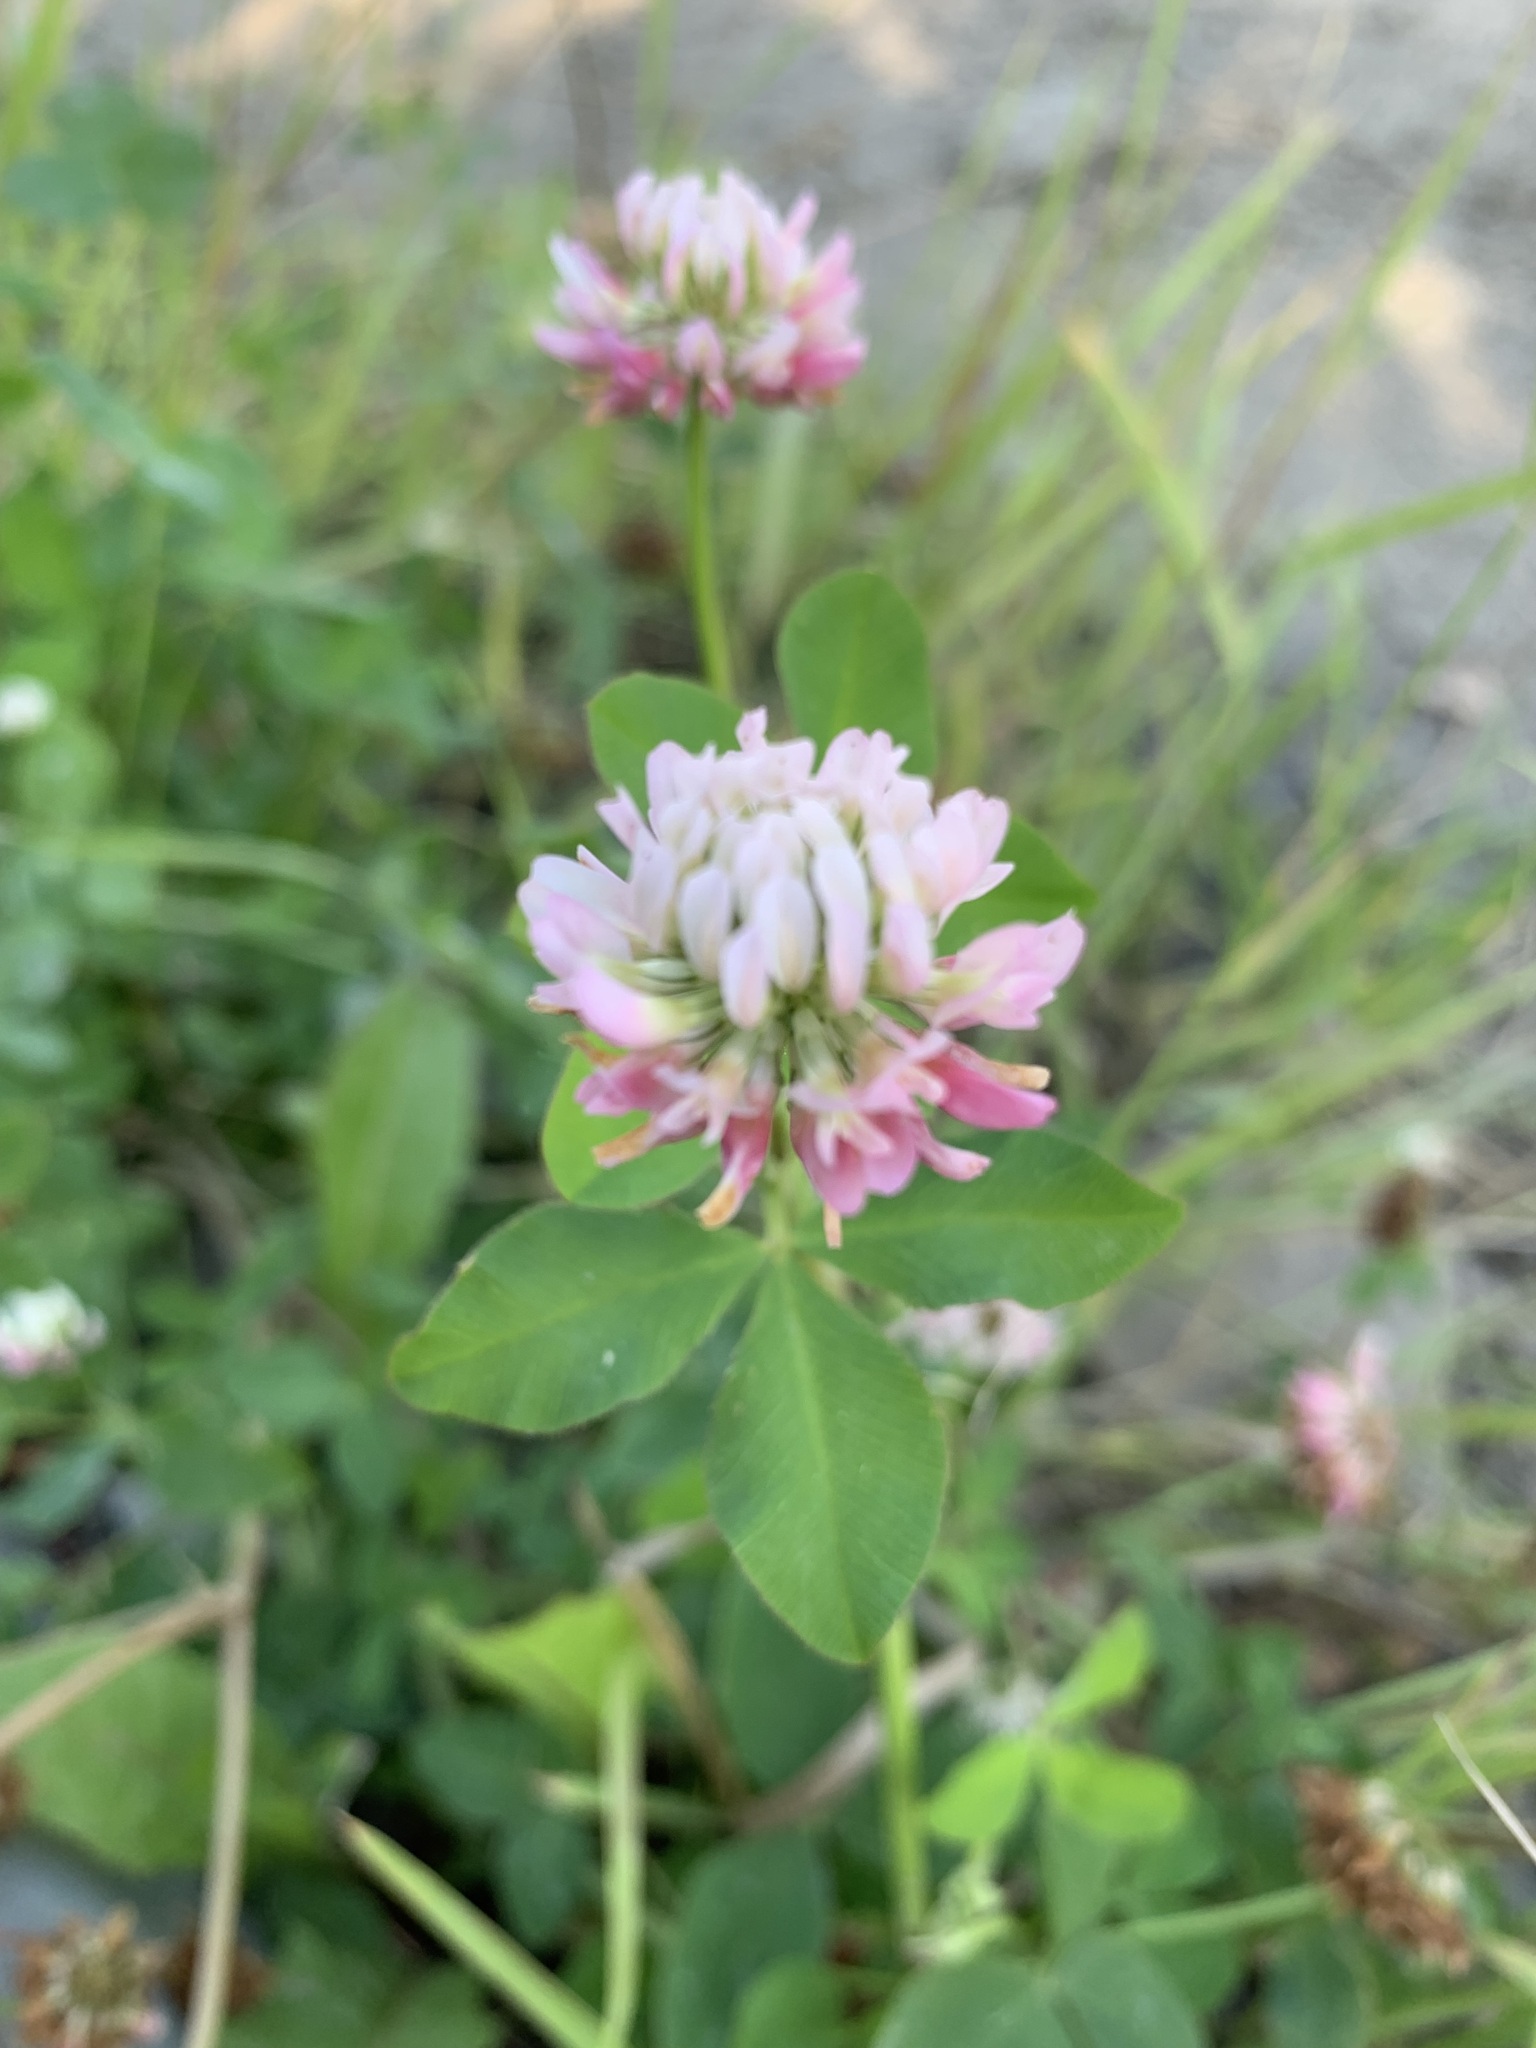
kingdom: Plantae
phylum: Tracheophyta
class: Magnoliopsida
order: Fabales
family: Fabaceae
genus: Trifolium
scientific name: Trifolium hybridum
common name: Alsike clover
